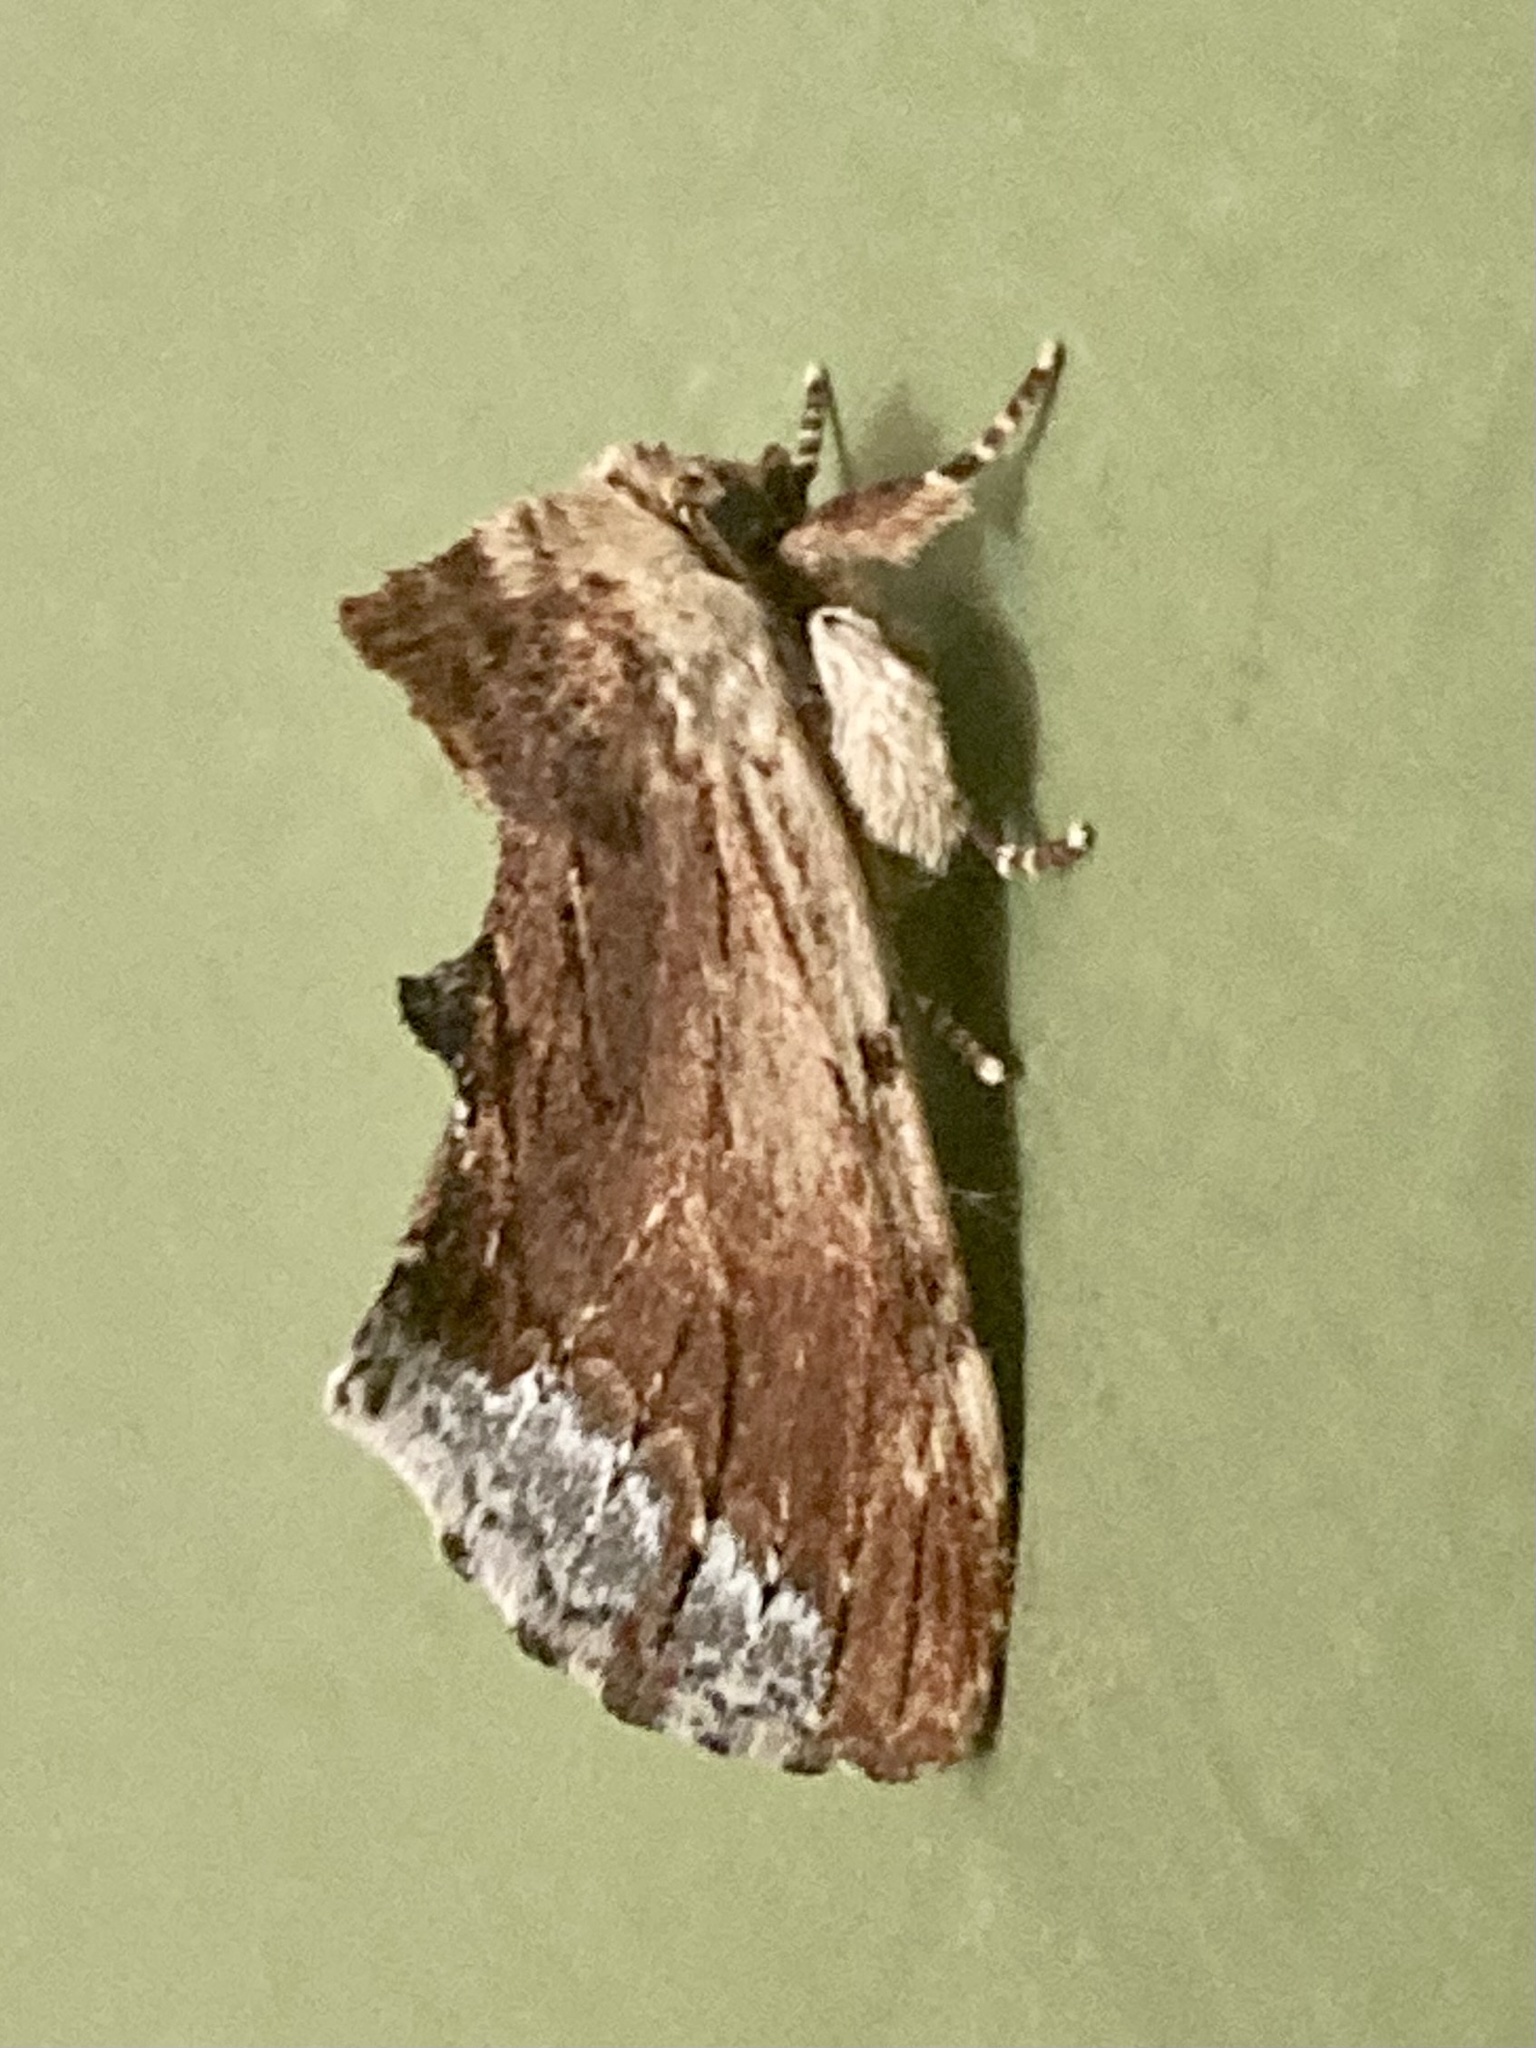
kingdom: Animalia
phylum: Arthropoda
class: Insecta
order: Lepidoptera
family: Notodontidae
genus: Ptilodon
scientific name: Ptilodon cucullina
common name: Maple prominent
